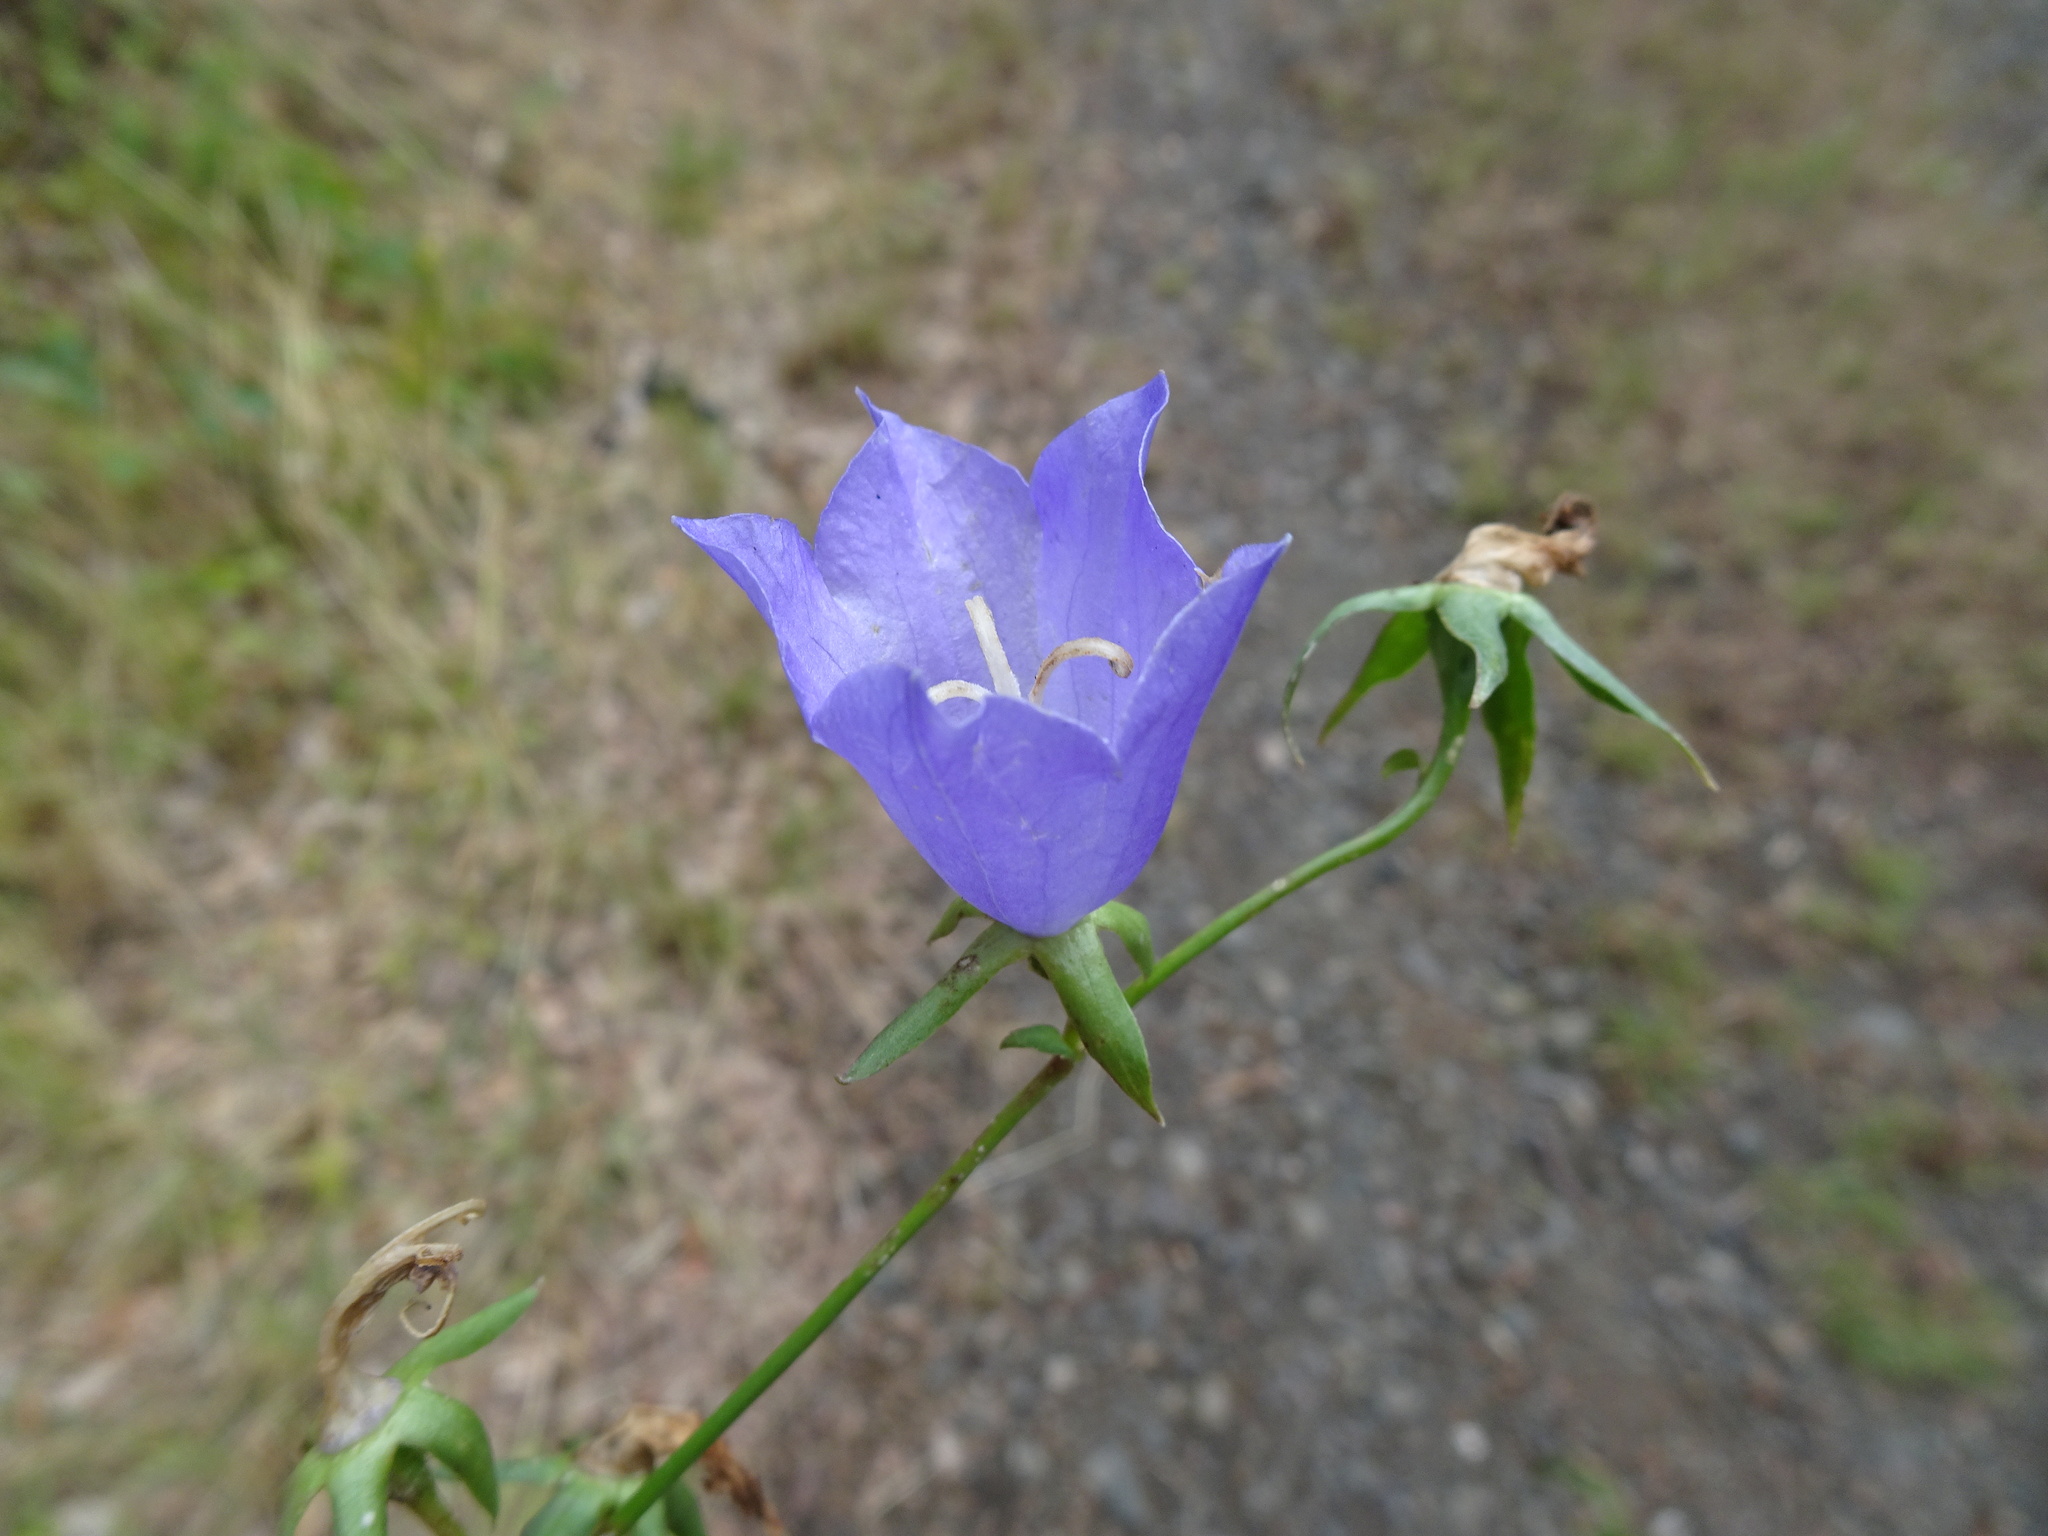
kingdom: Plantae
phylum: Tracheophyta
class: Magnoliopsida
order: Asterales
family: Campanulaceae
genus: Campanula
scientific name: Campanula persicifolia
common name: Peach-leaved bellflower
